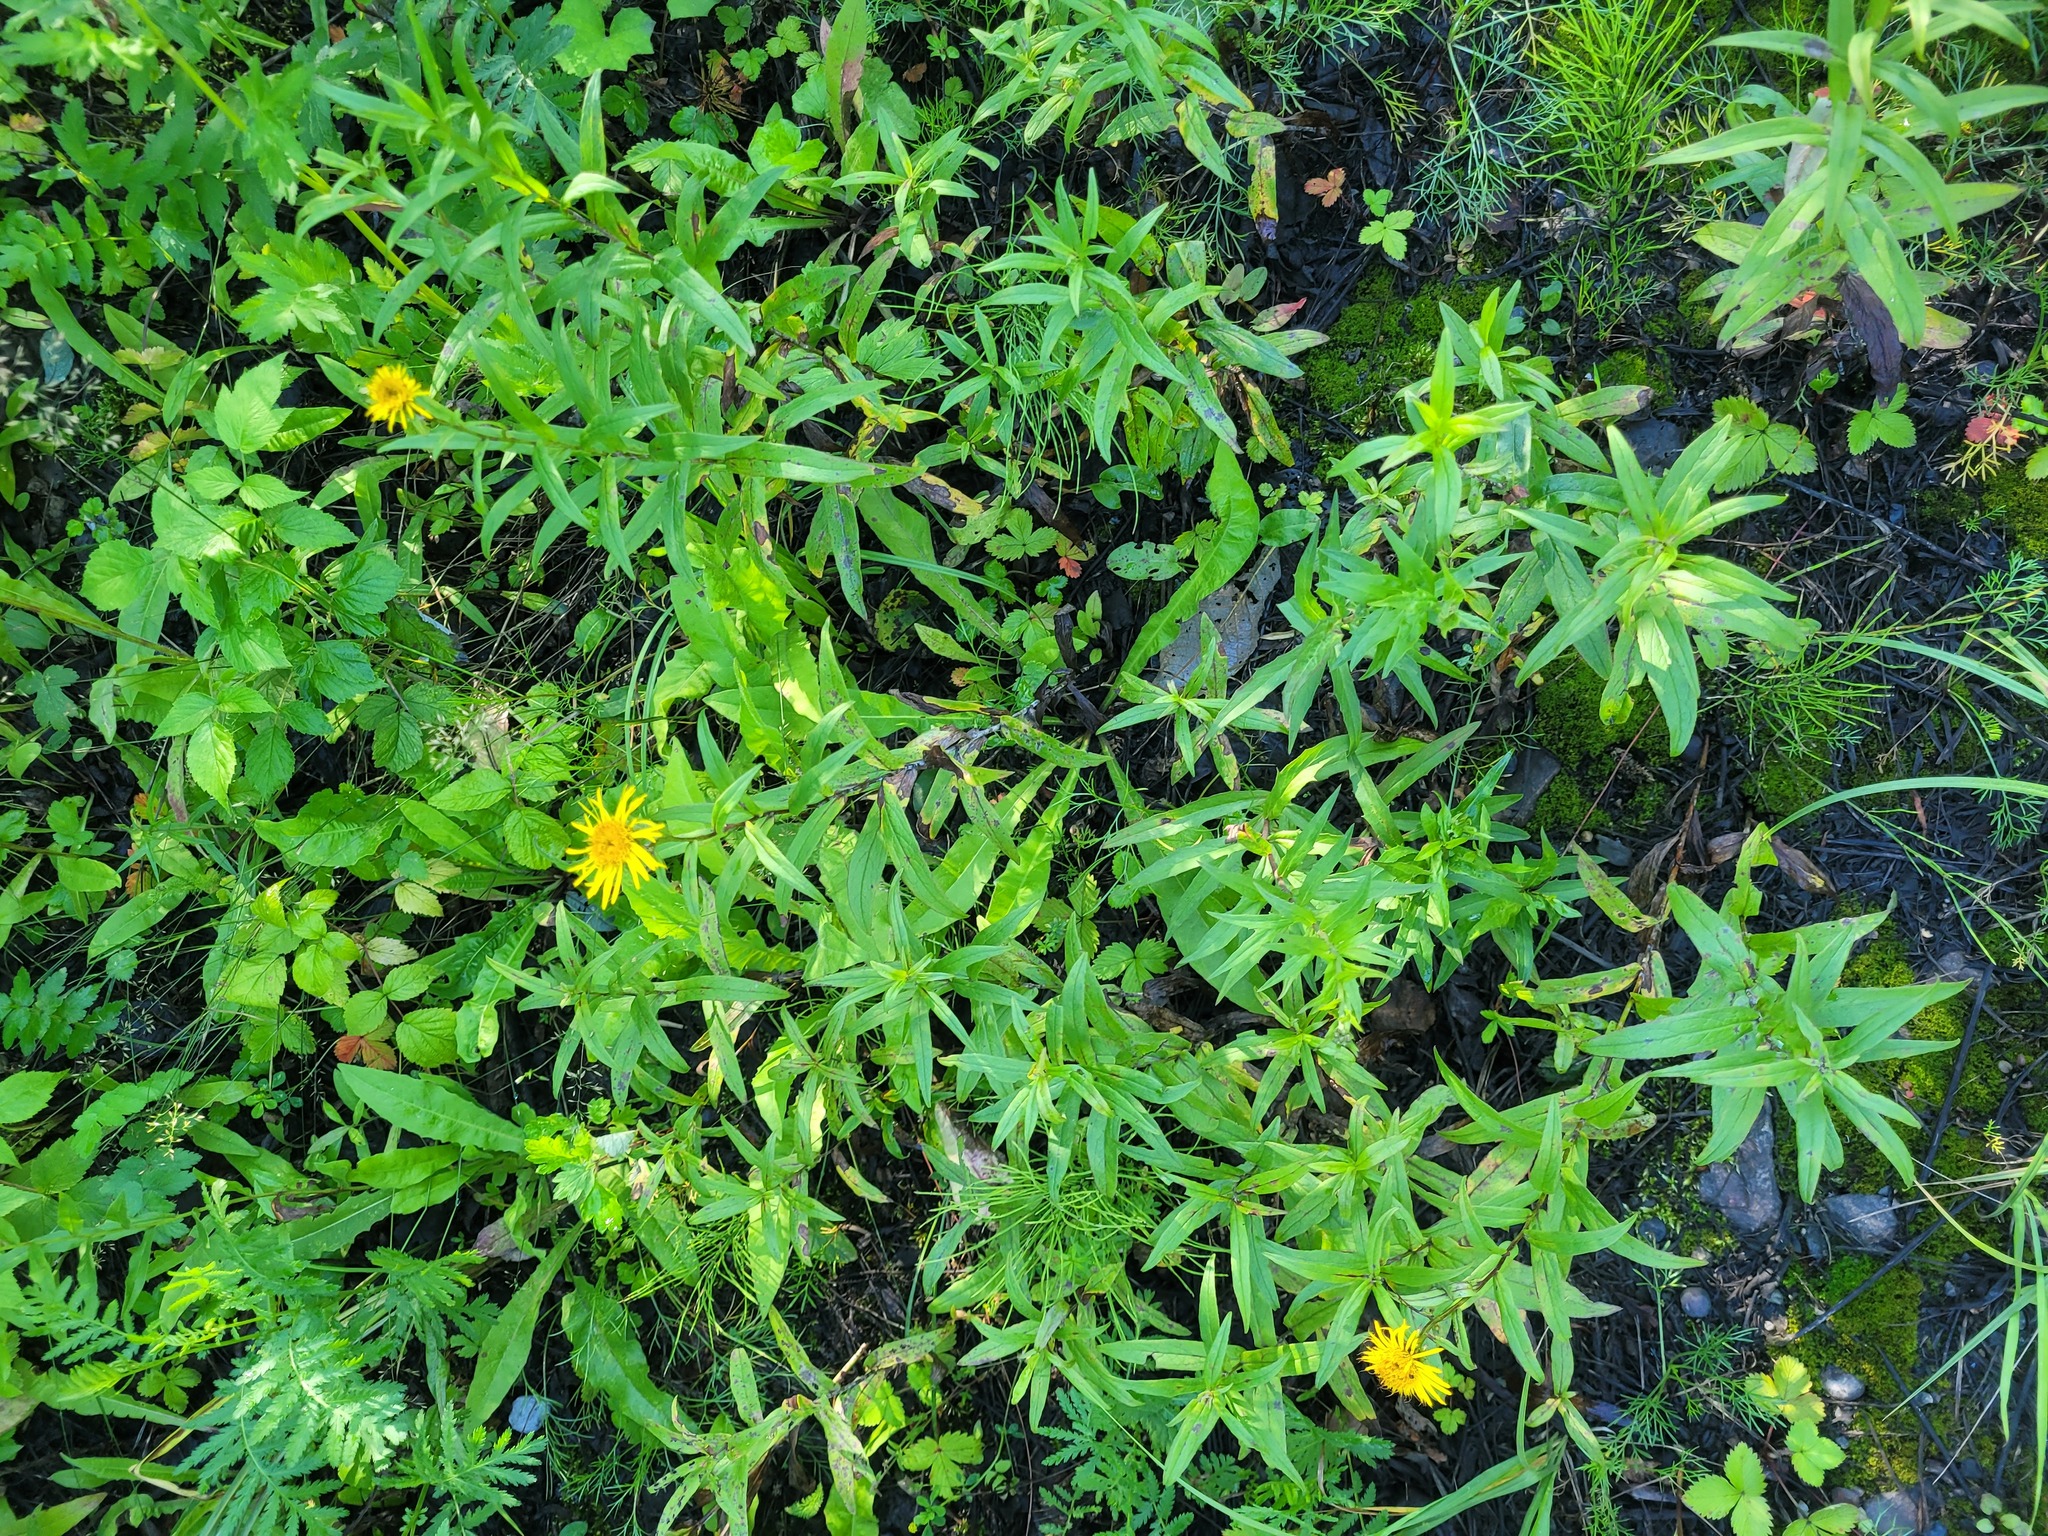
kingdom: Plantae
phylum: Tracheophyta
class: Magnoliopsida
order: Asterales
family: Asteraceae
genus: Pentanema
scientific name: Pentanema salicinum
